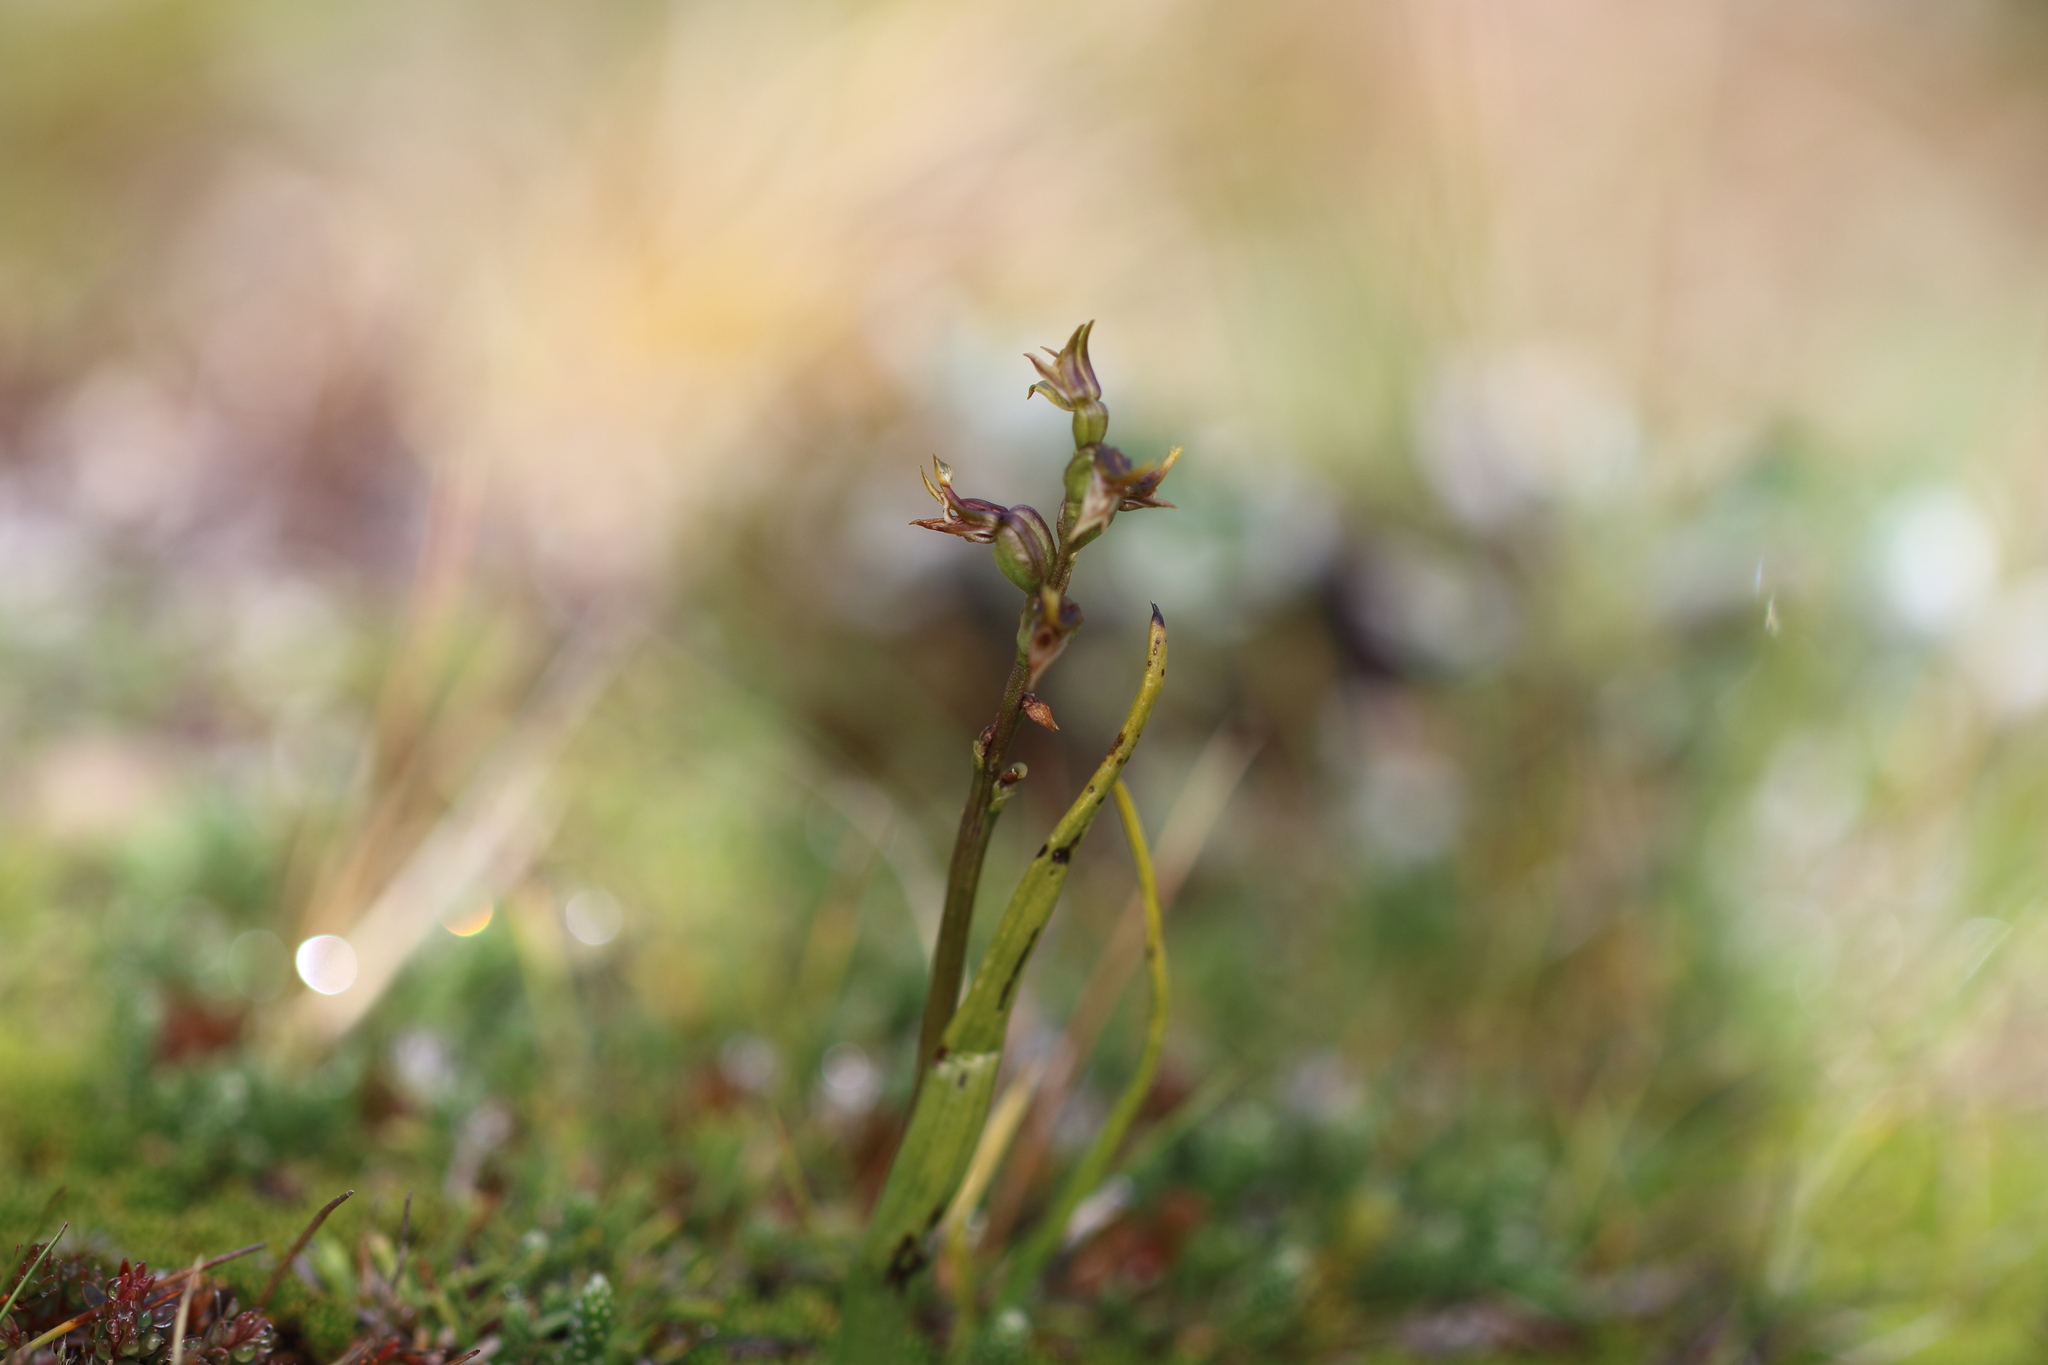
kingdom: Plantae
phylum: Tracheophyta
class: Liliopsida
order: Asparagales
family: Orchidaceae
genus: Prasophyllum
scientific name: Prasophyllum colensoi
